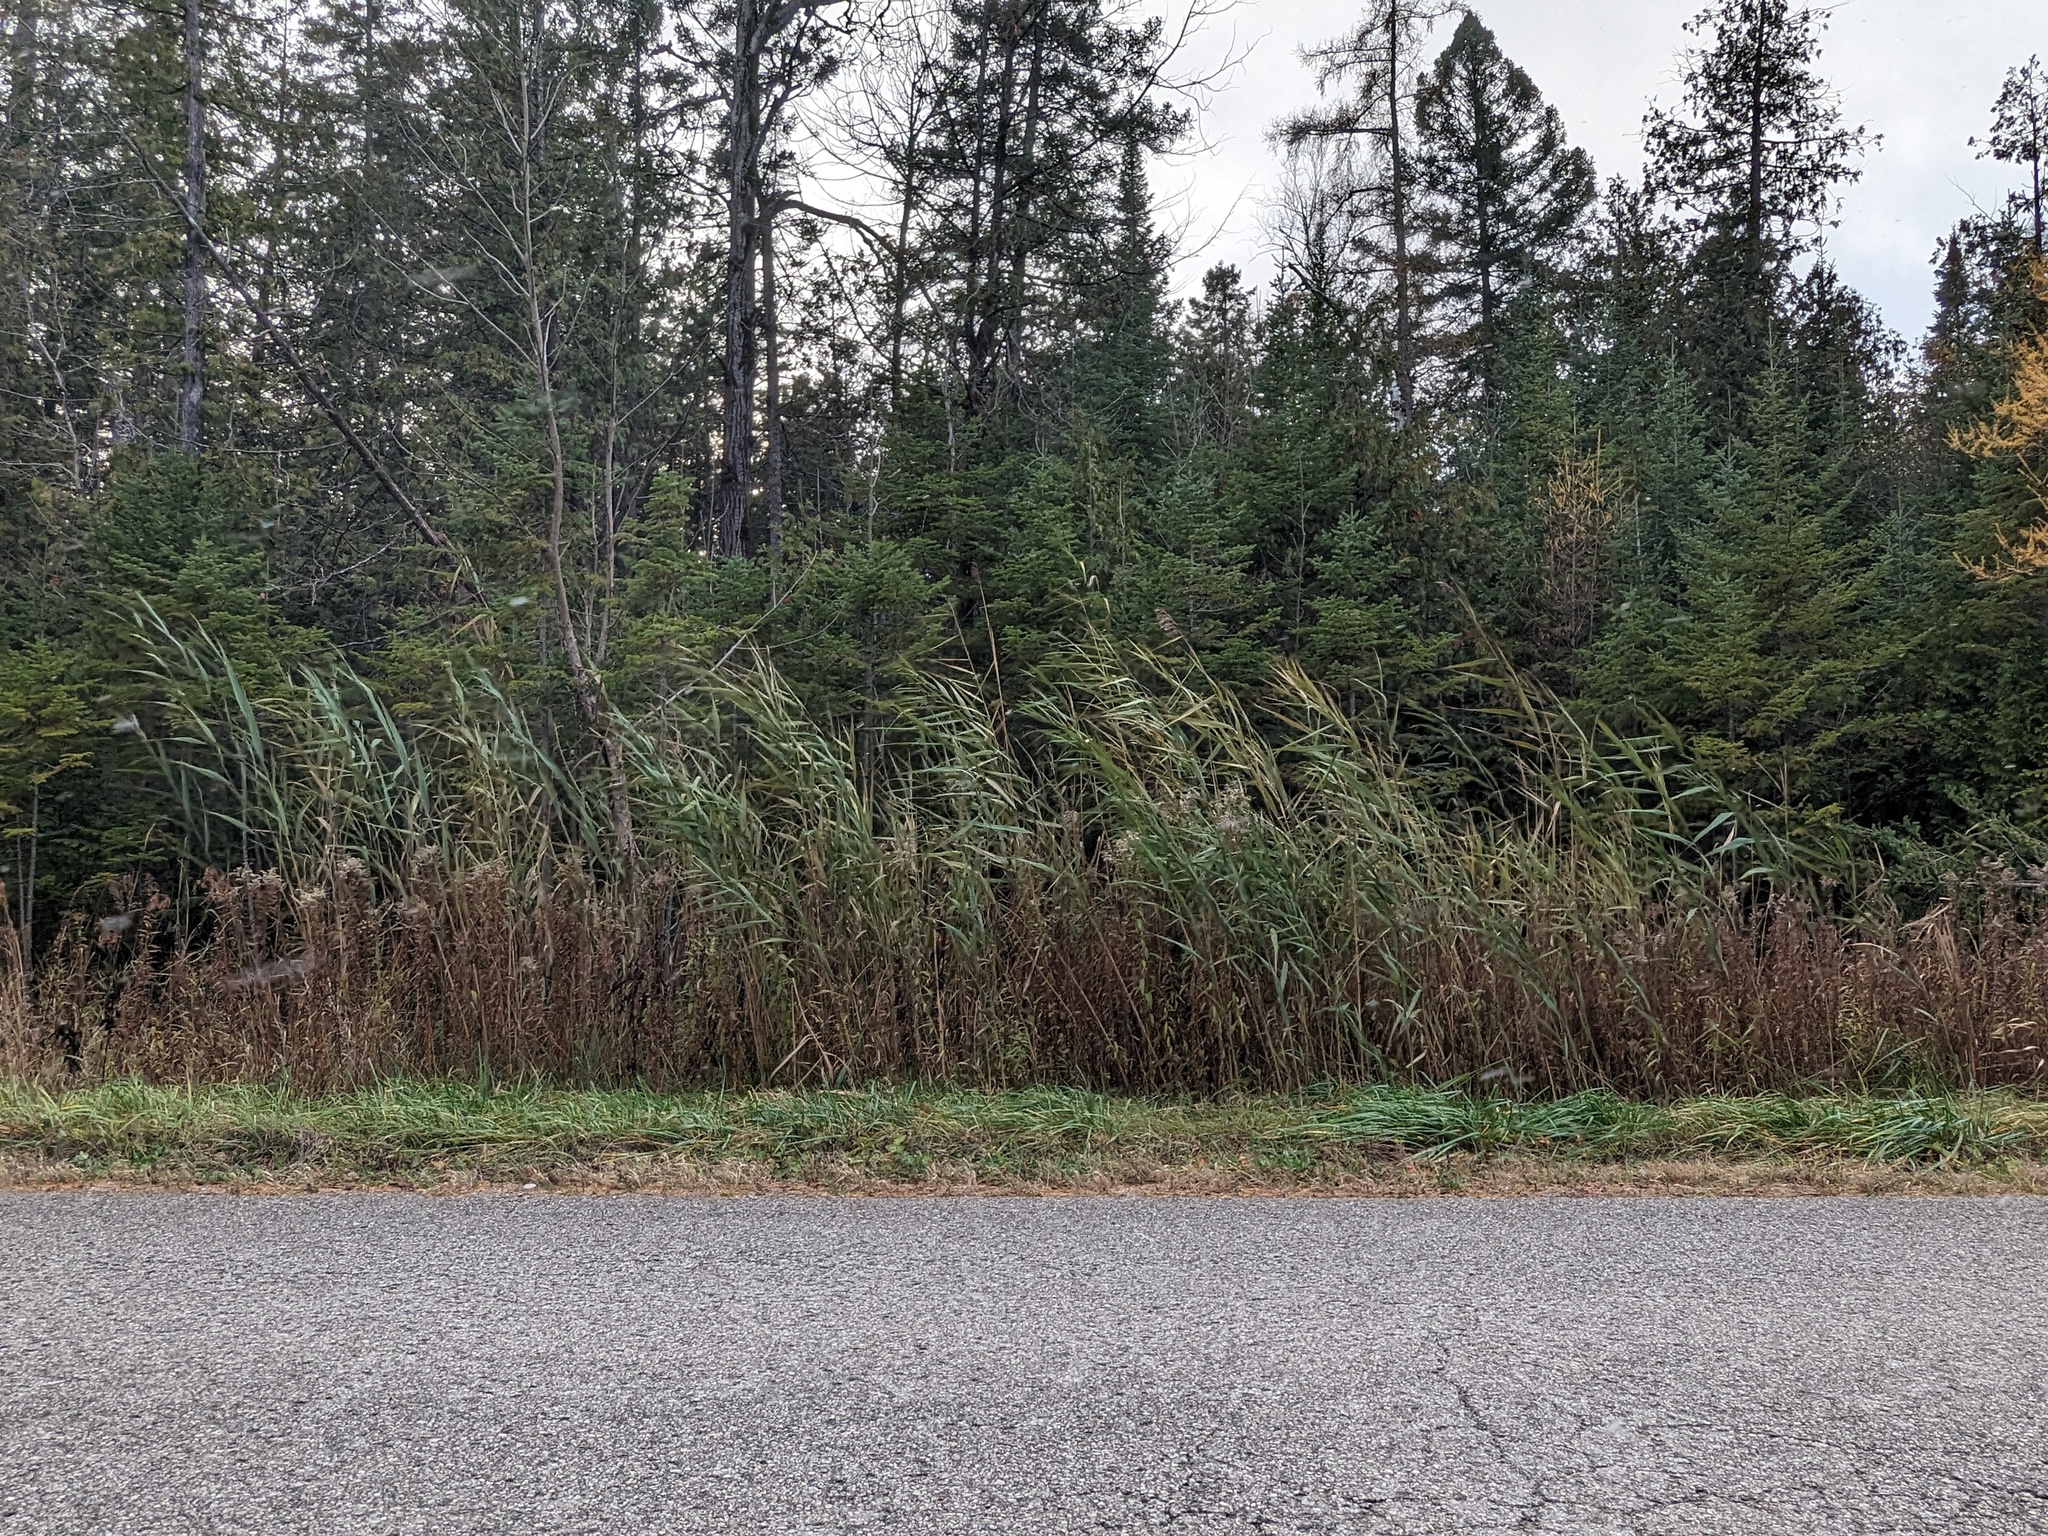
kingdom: Plantae
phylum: Tracheophyta
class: Liliopsida
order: Poales
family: Poaceae
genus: Phragmites
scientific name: Phragmites australis
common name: Common reed
